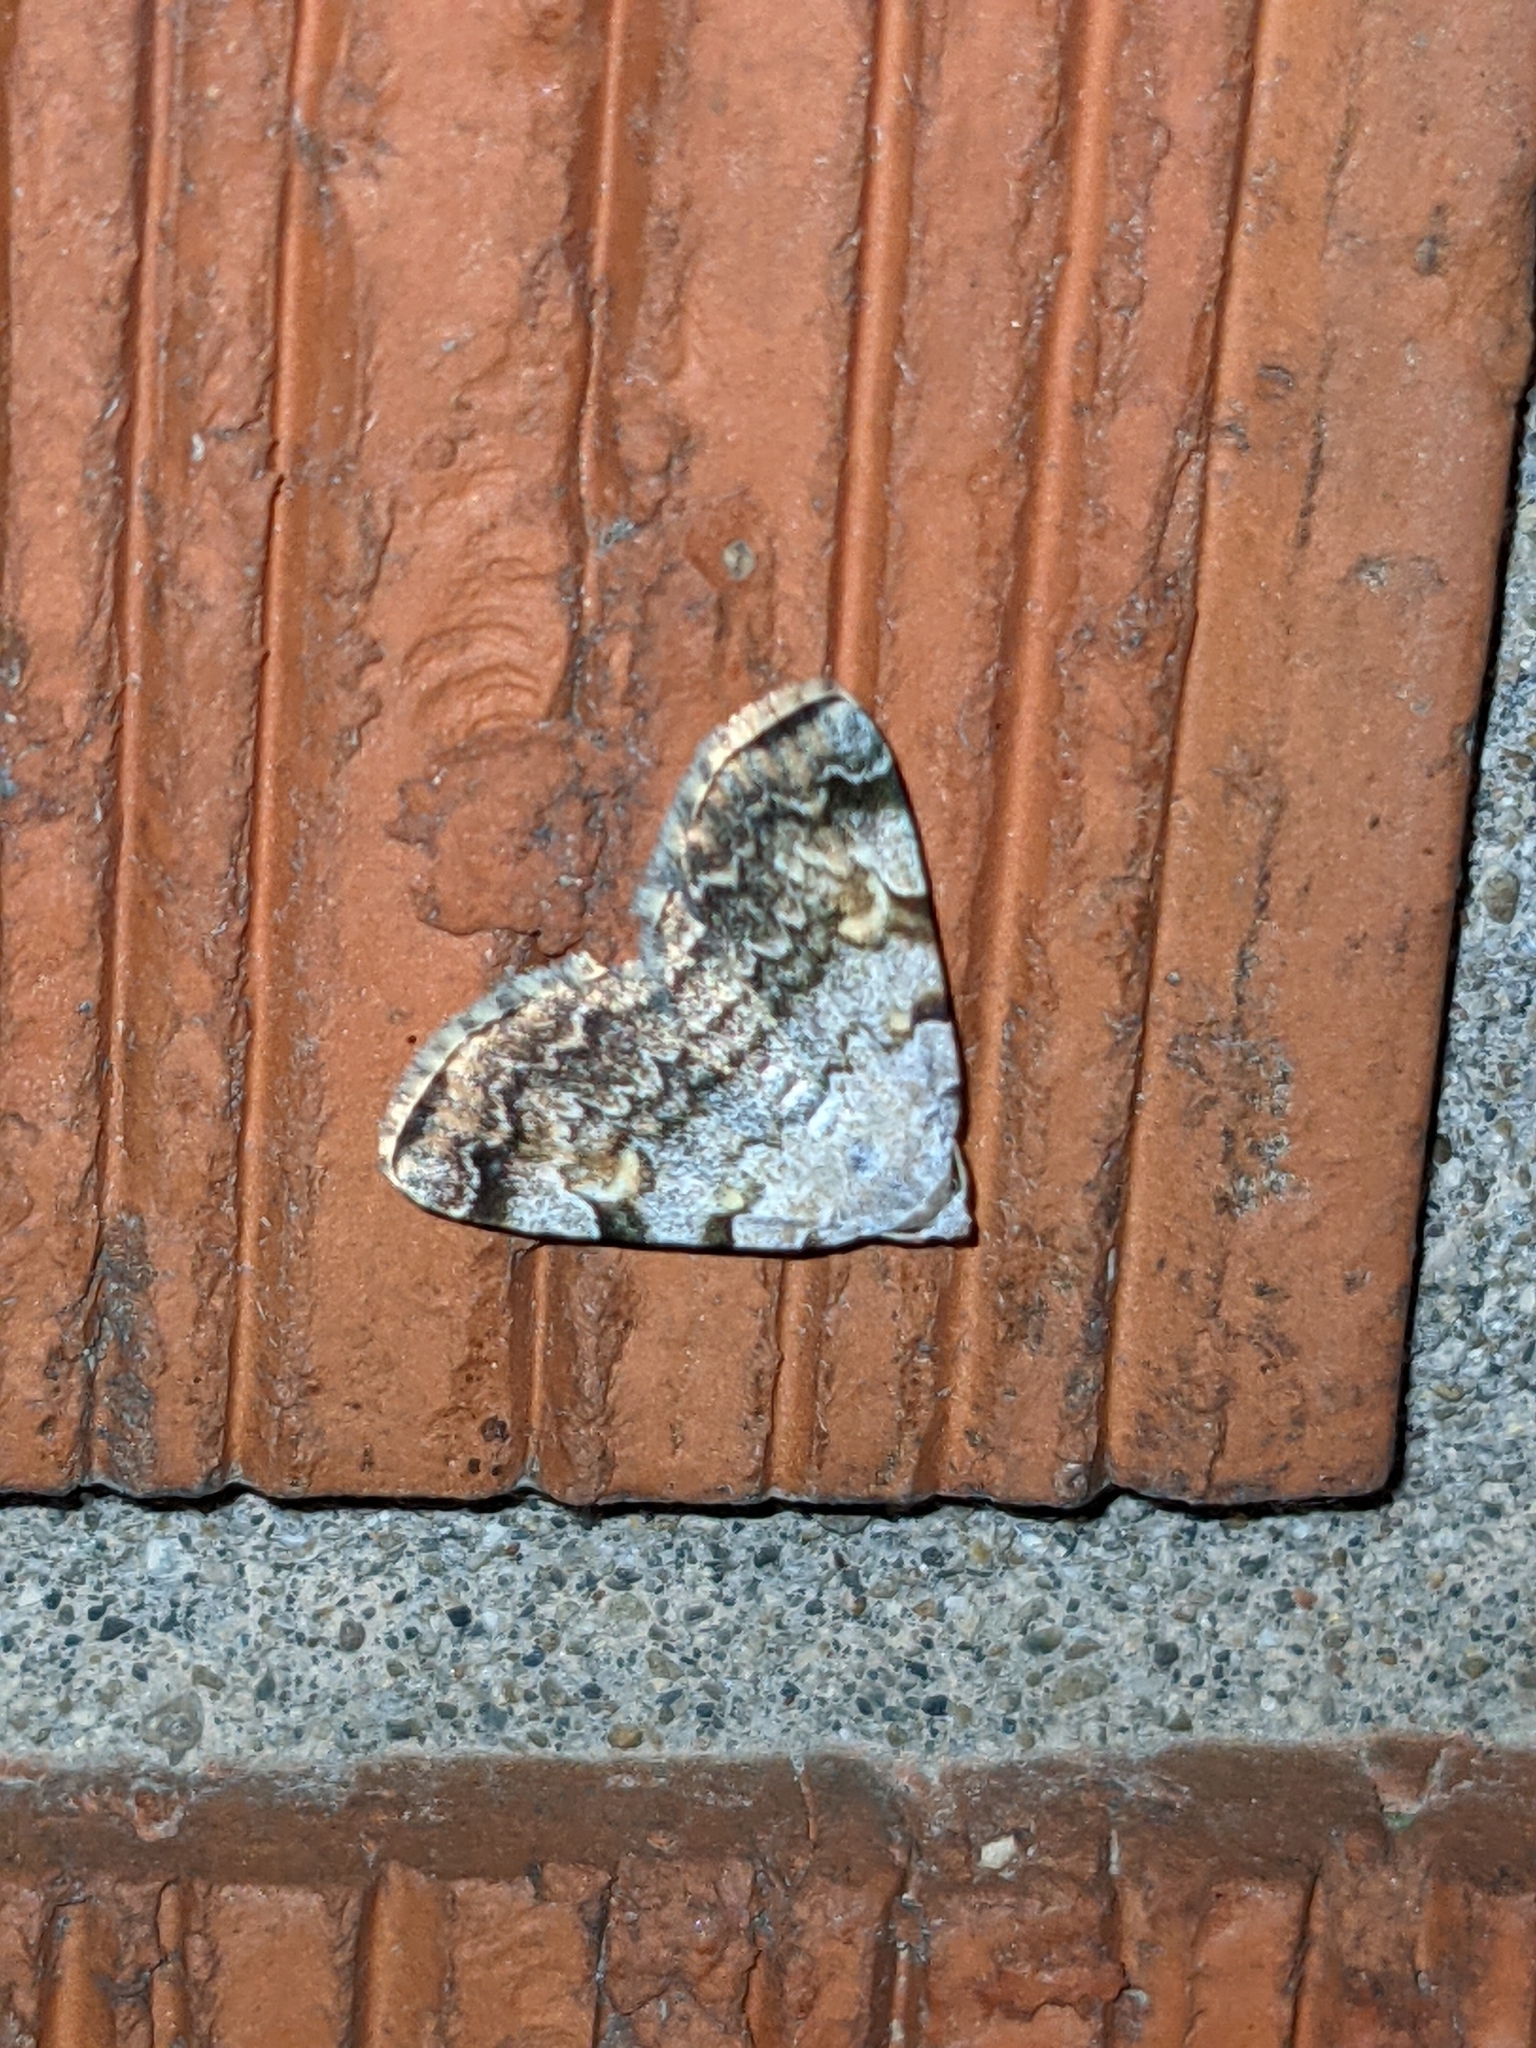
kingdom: Animalia
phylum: Arthropoda
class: Insecta
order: Lepidoptera
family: Erebidae
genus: Idia
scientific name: Idia americalis
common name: American idia moth
